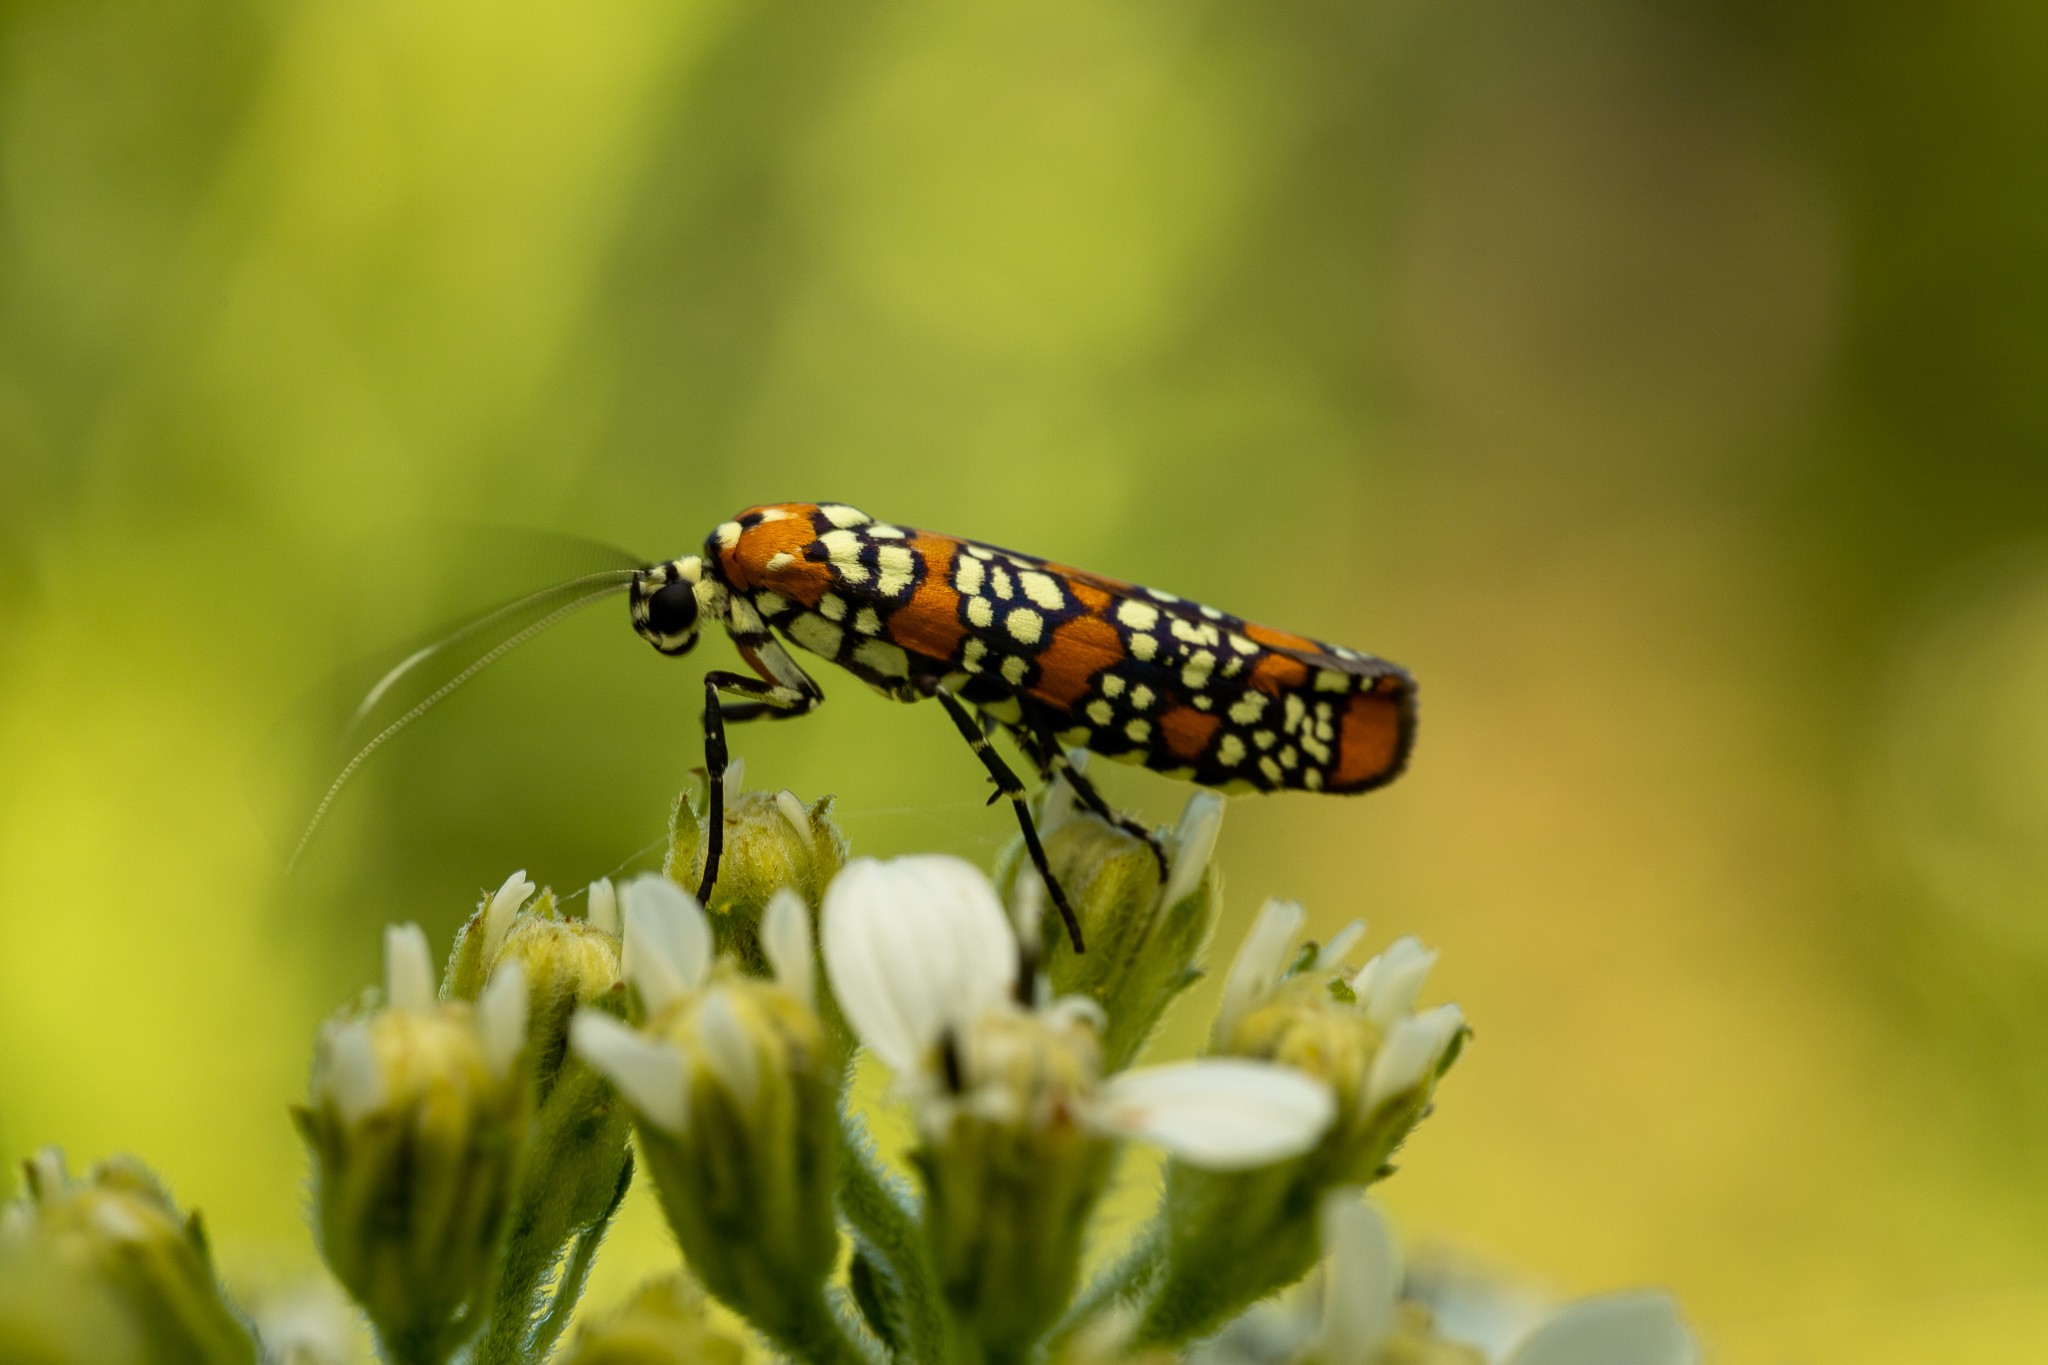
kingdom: Animalia
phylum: Arthropoda
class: Insecta
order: Lepidoptera
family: Attevidae
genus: Atteva
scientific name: Atteva punctella
